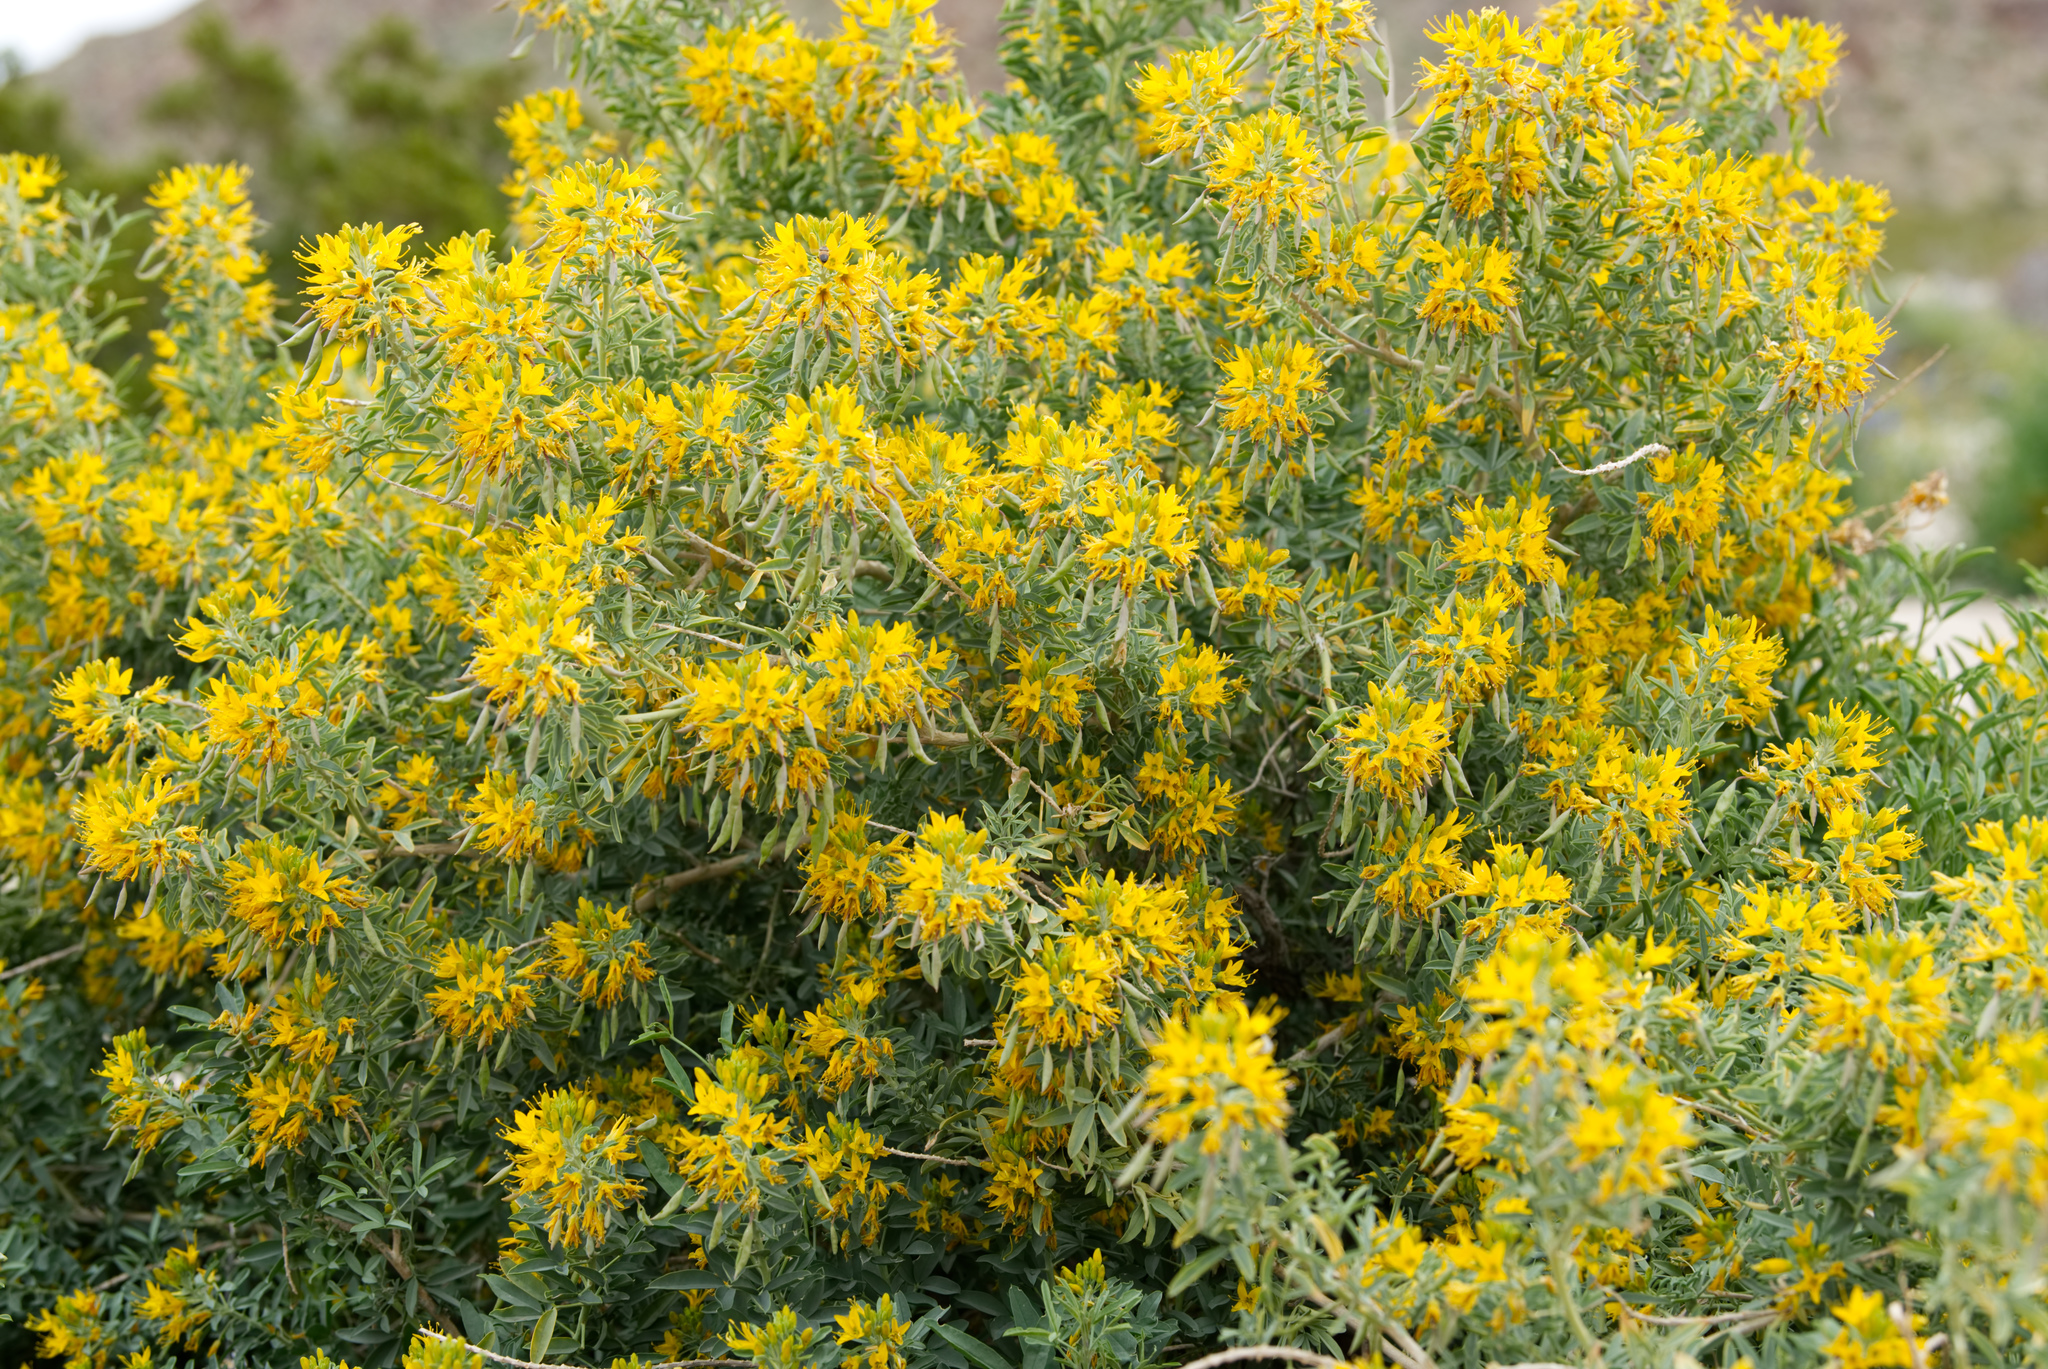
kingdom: Plantae
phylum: Tracheophyta
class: Magnoliopsida
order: Brassicales
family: Cleomaceae
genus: Cleomella
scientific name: Cleomella arborea
